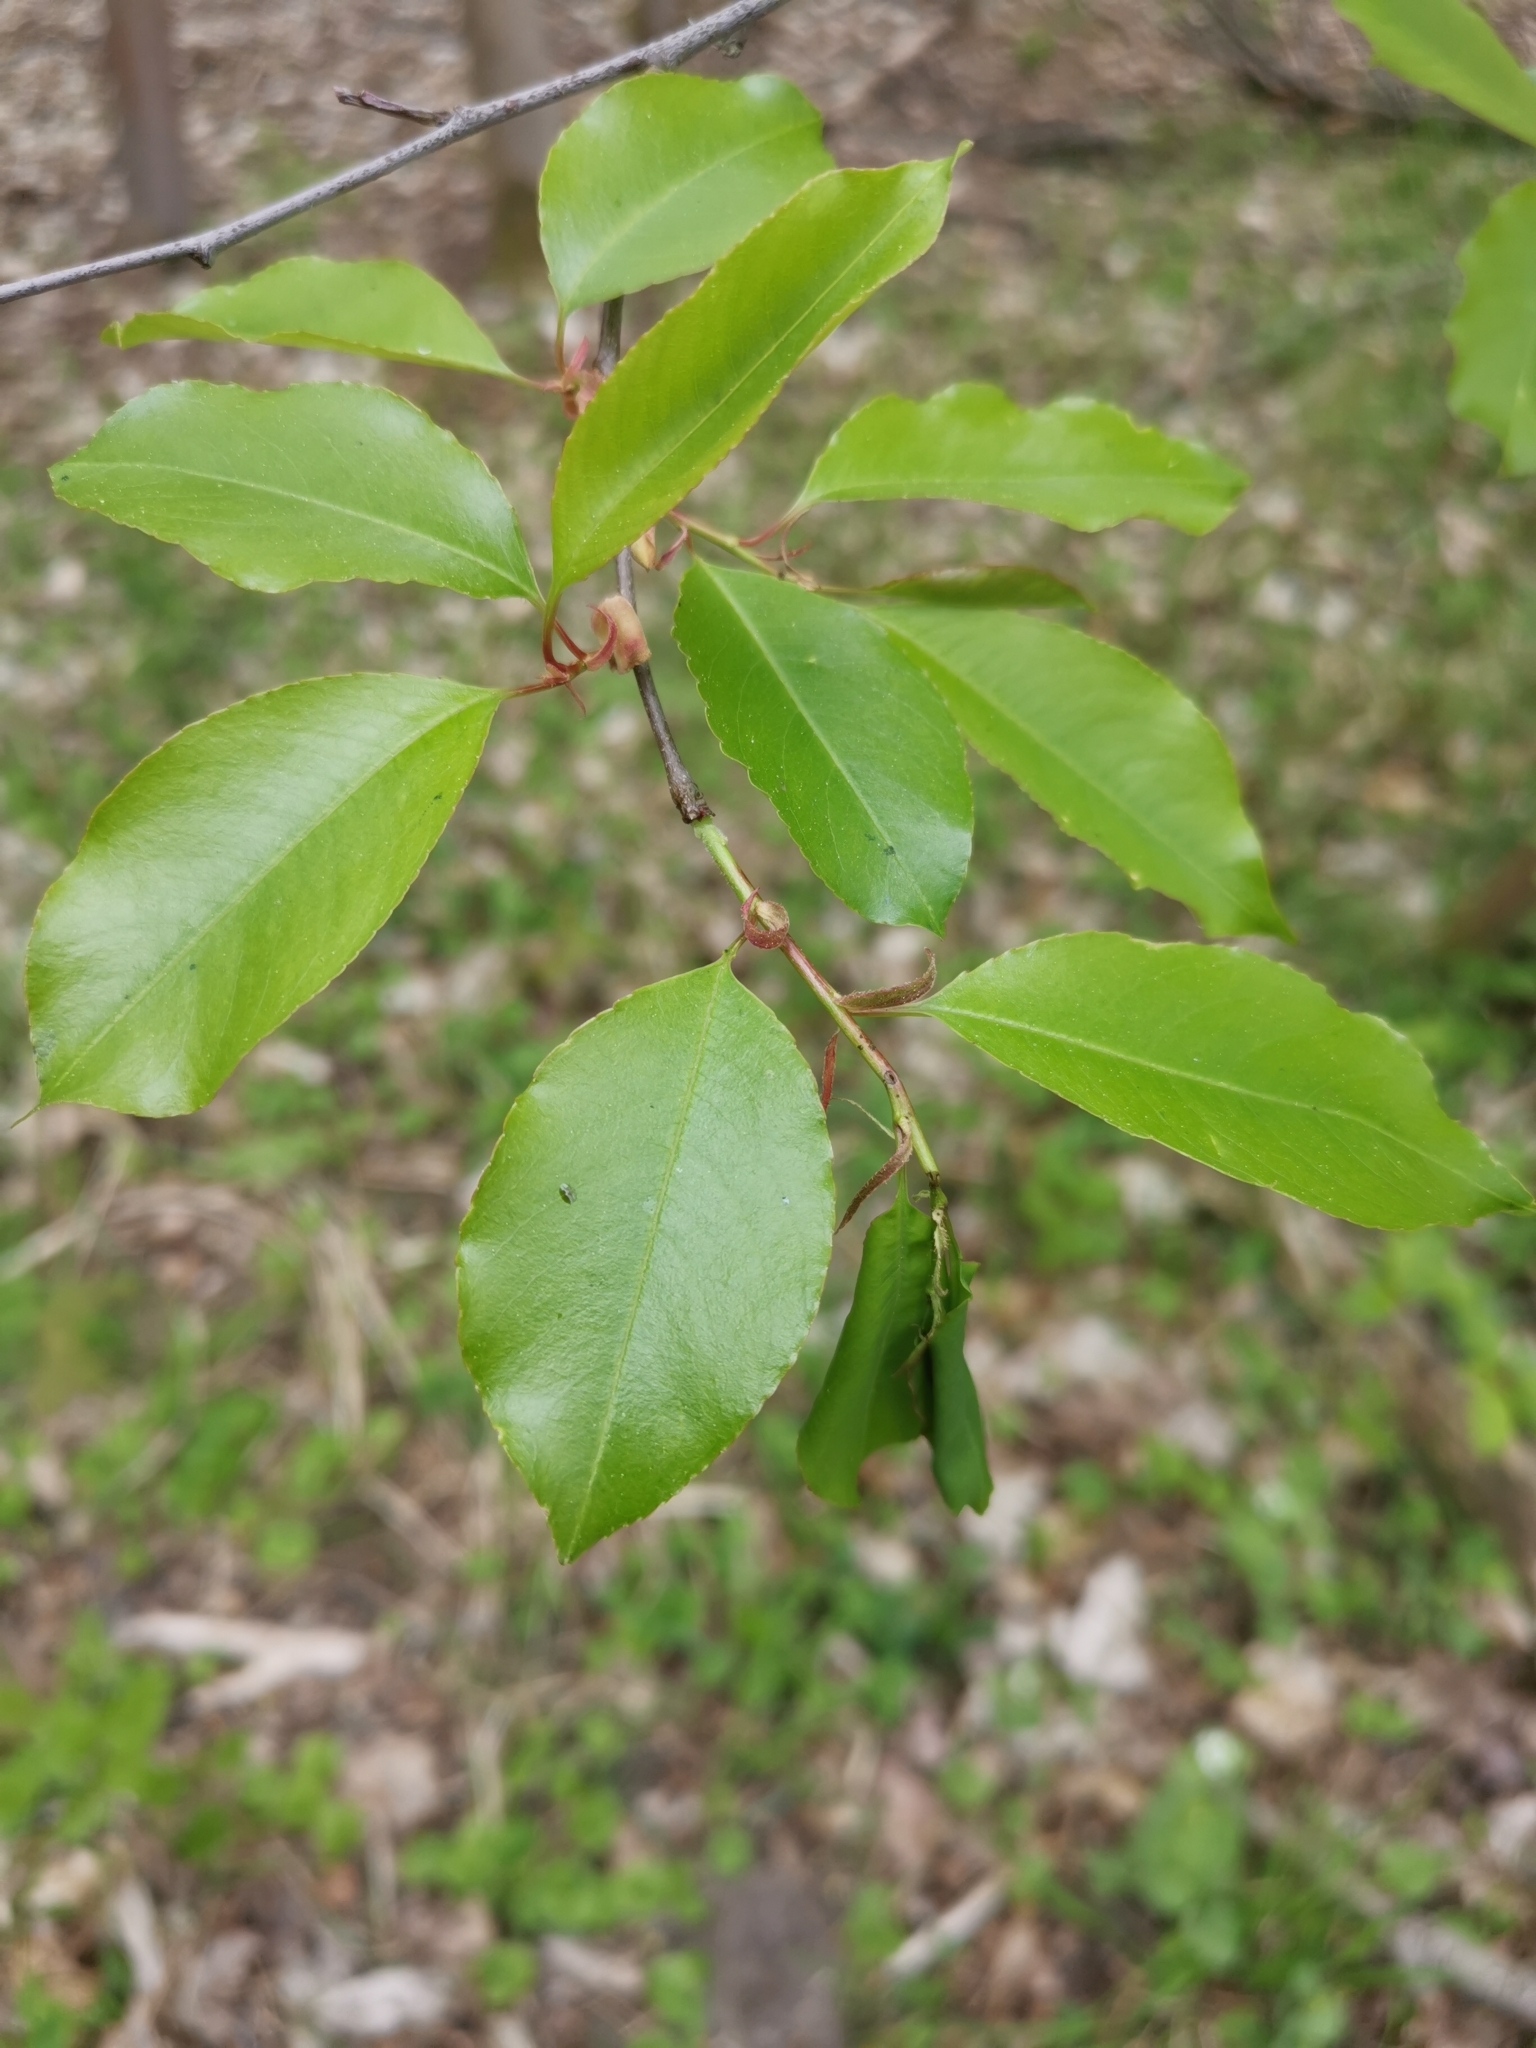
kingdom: Plantae
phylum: Tracheophyta
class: Magnoliopsida
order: Rosales
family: Rosaceae
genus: Prunus
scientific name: Prunus serotina
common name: Black cherry
